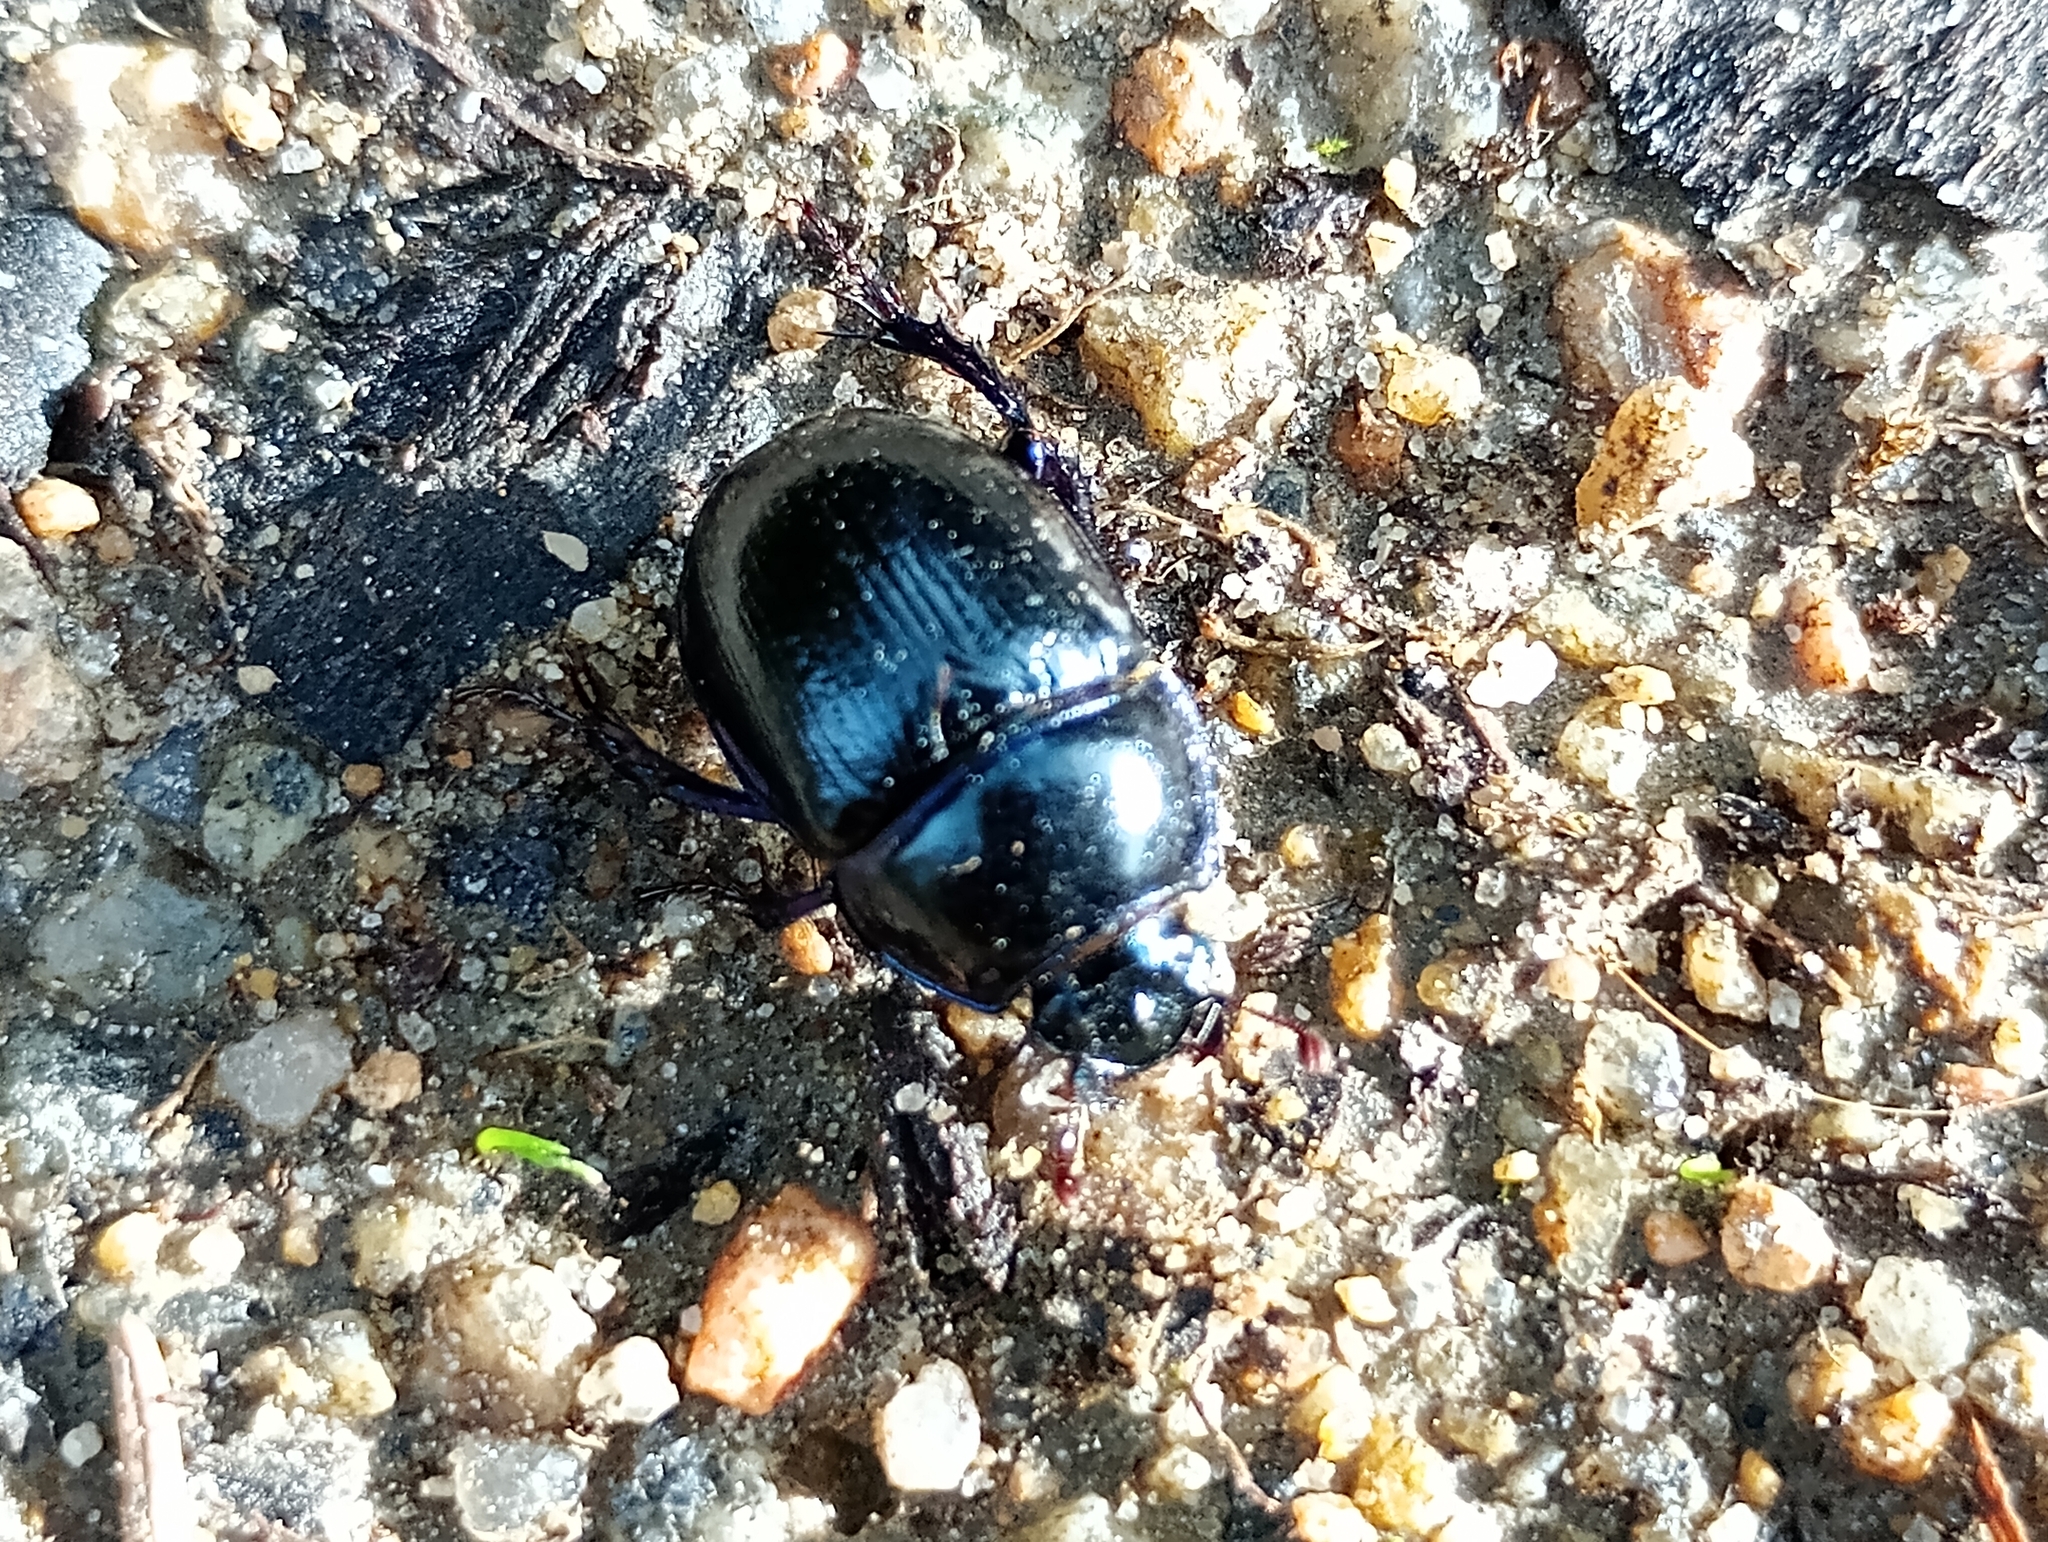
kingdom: Animalia
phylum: Arthropoda
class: Insecta
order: Coleoptera
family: Geotrupidae
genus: Anoplotrupes
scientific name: Anoplotrupes stercorosus
